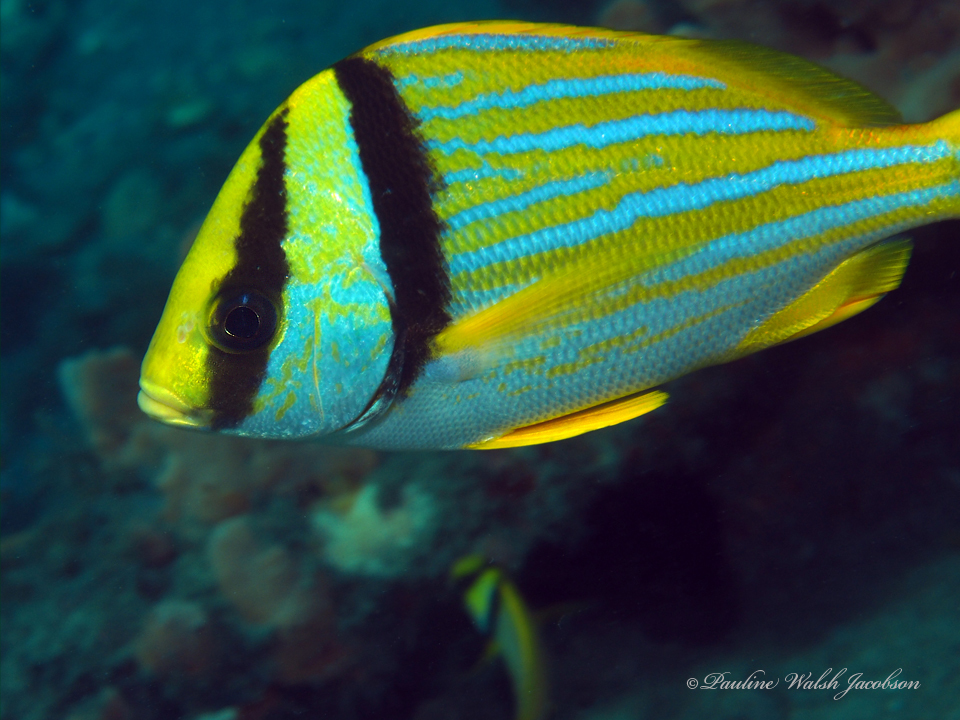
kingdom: Animalia
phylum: Chordata
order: Perciformes
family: Haemulidae
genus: Anisotremus
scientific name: Anisotremus virginicus
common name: Porkfish
